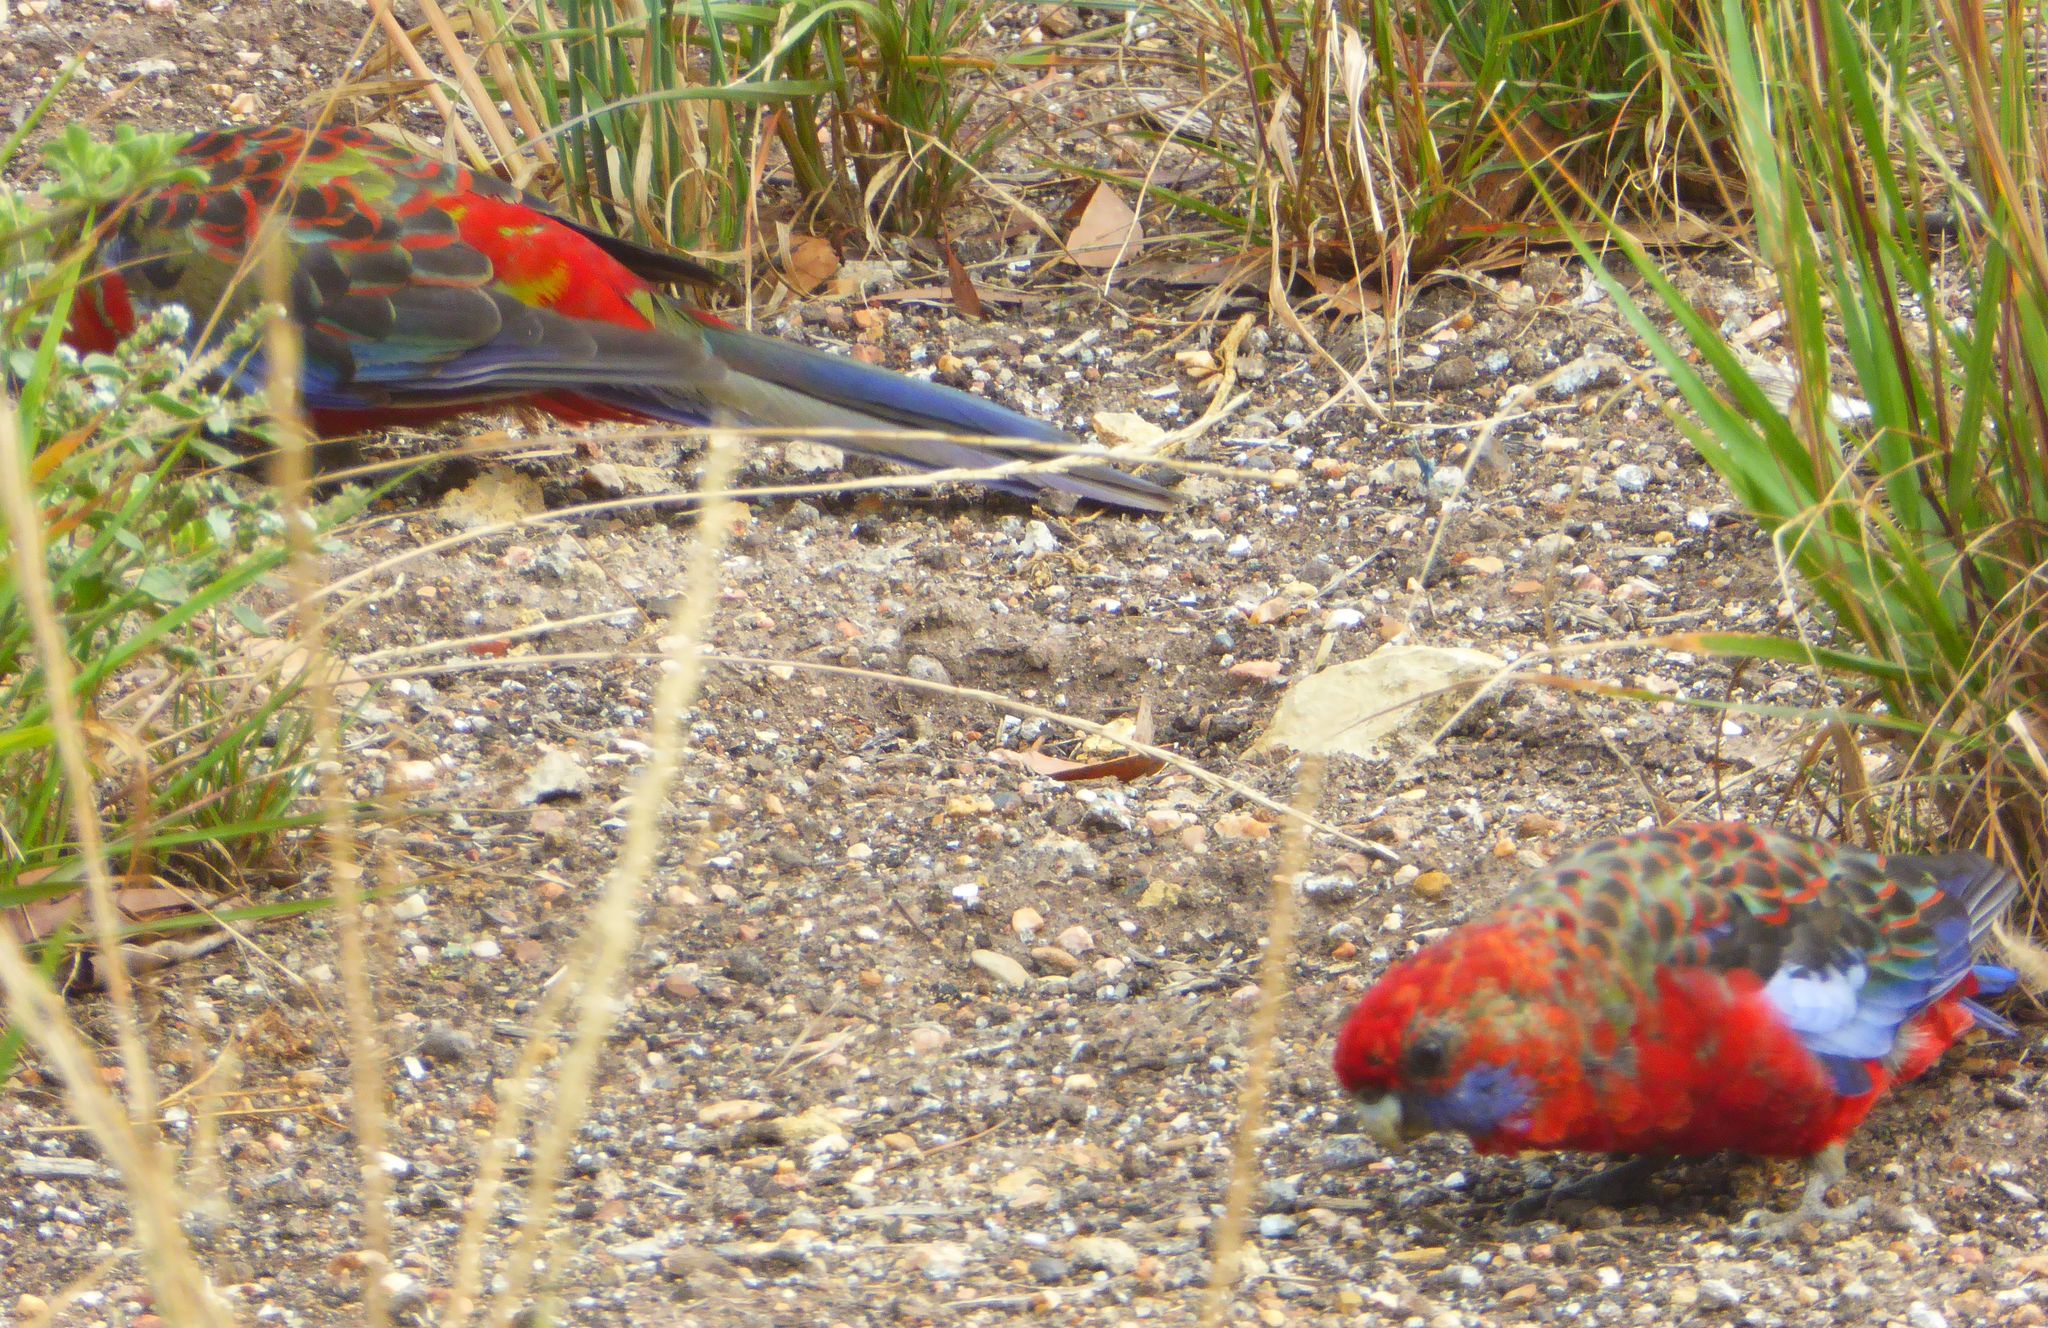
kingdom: Animalia
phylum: Chordata
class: Aves
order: Psittaciformes
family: Psittacidae
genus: Platycercus
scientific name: Platycercus elegans
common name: Crimson rosella
